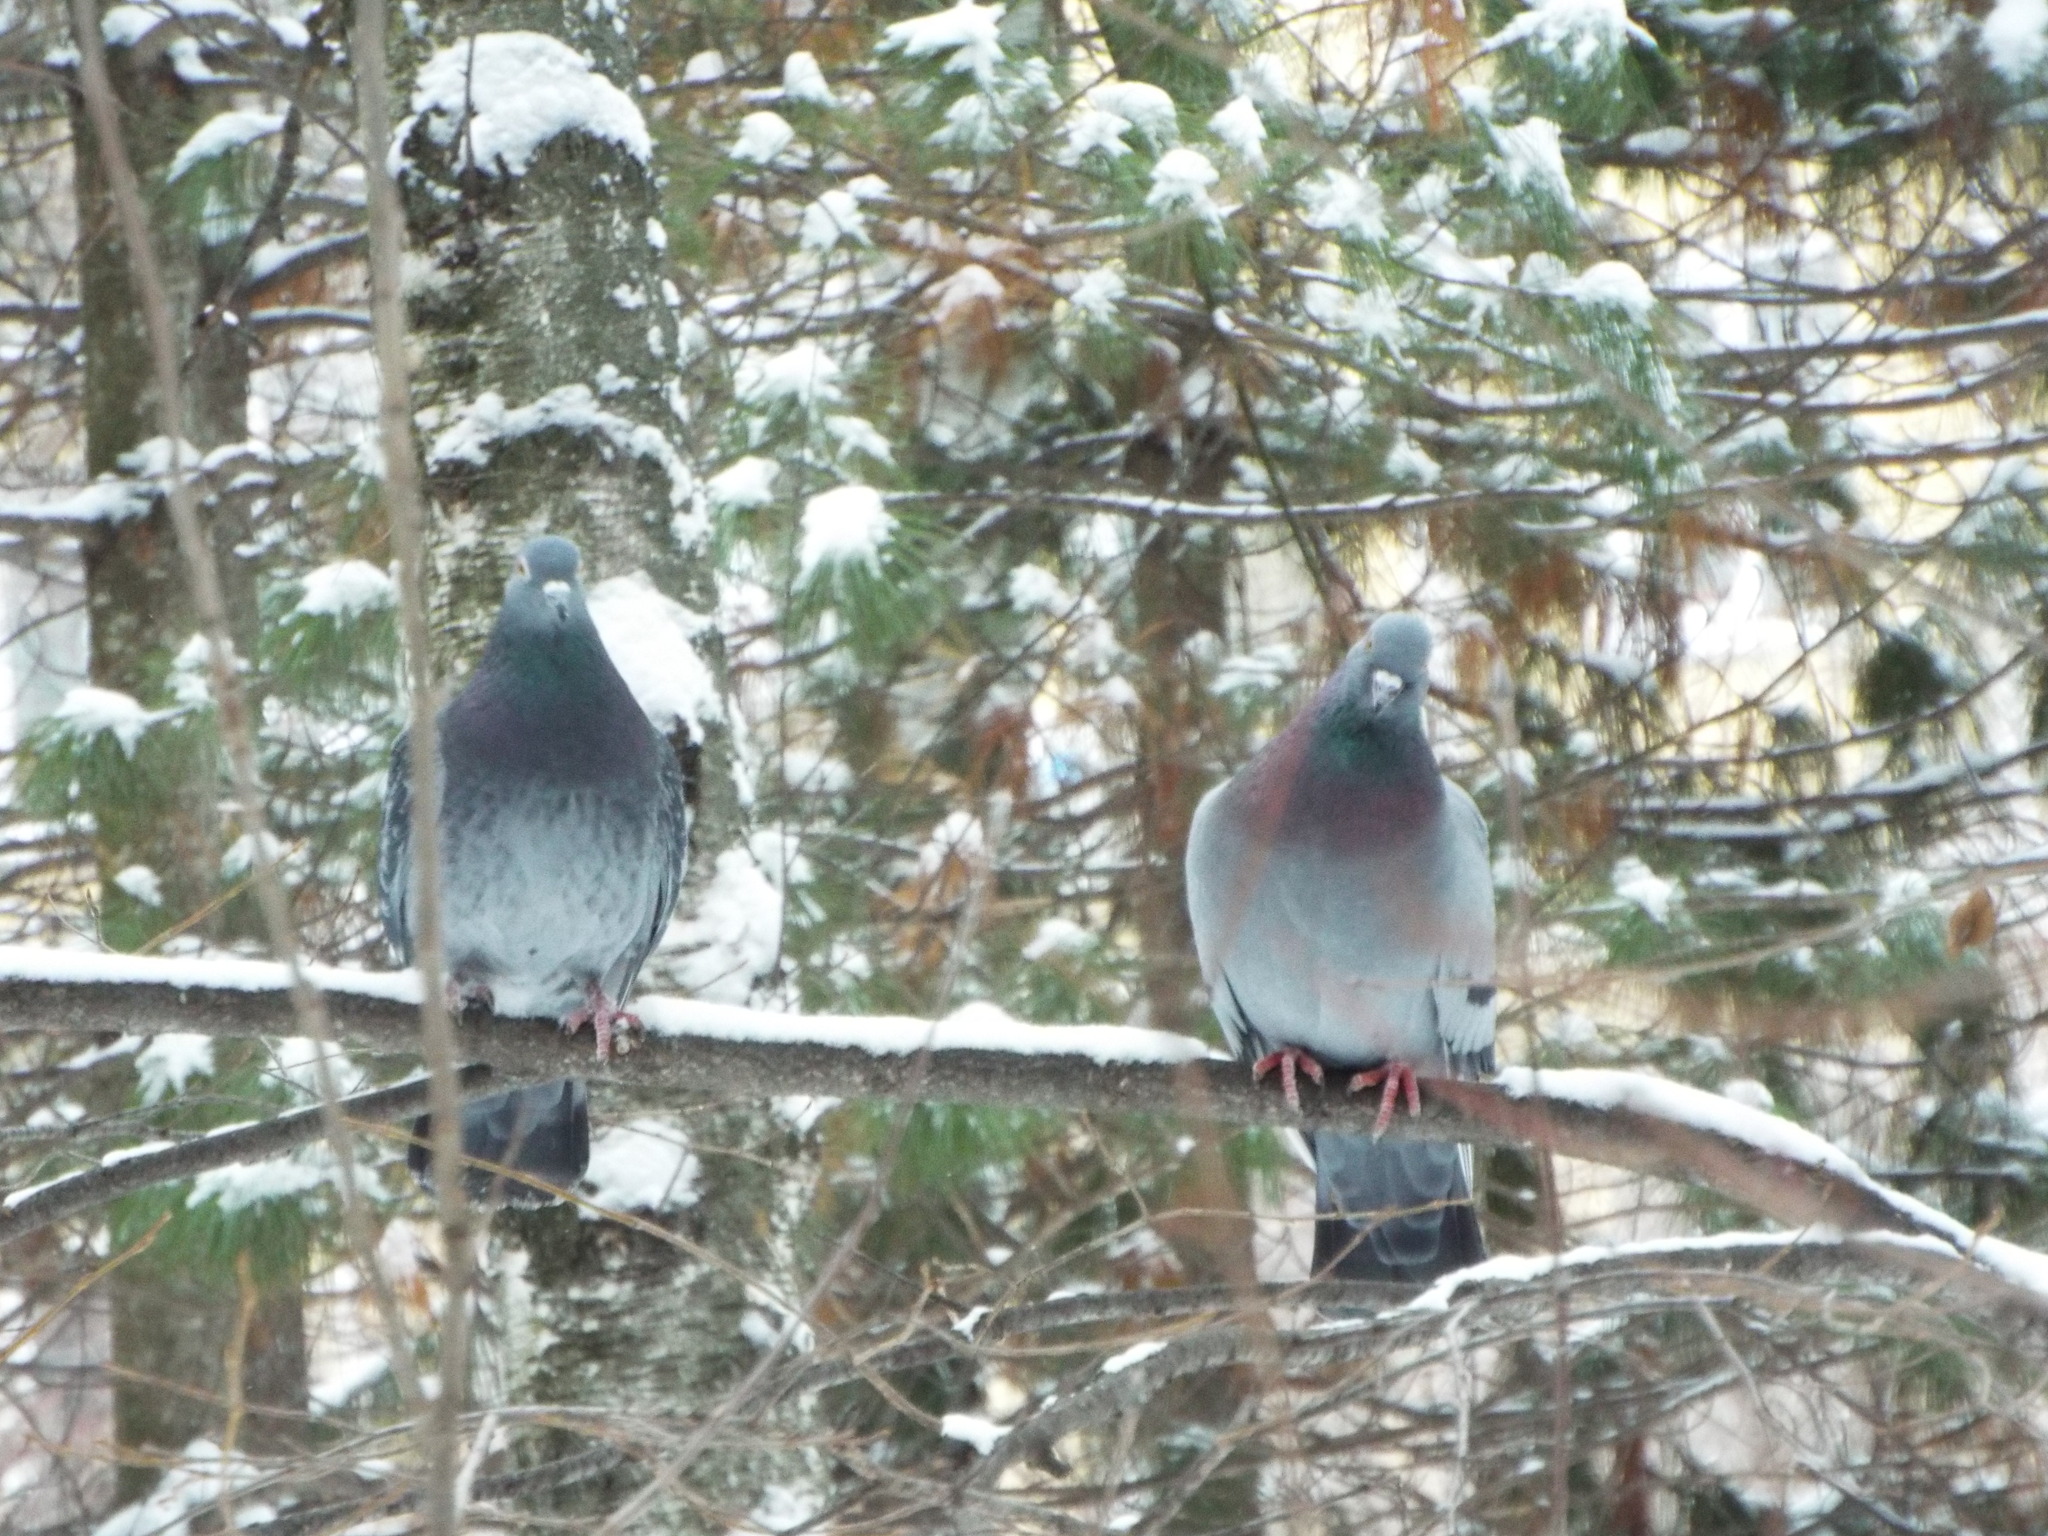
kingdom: Animalia
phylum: Chordata
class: Aves
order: Columbiformes
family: Columbidae
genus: Columba
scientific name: Columba livia
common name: Rock pigeon
